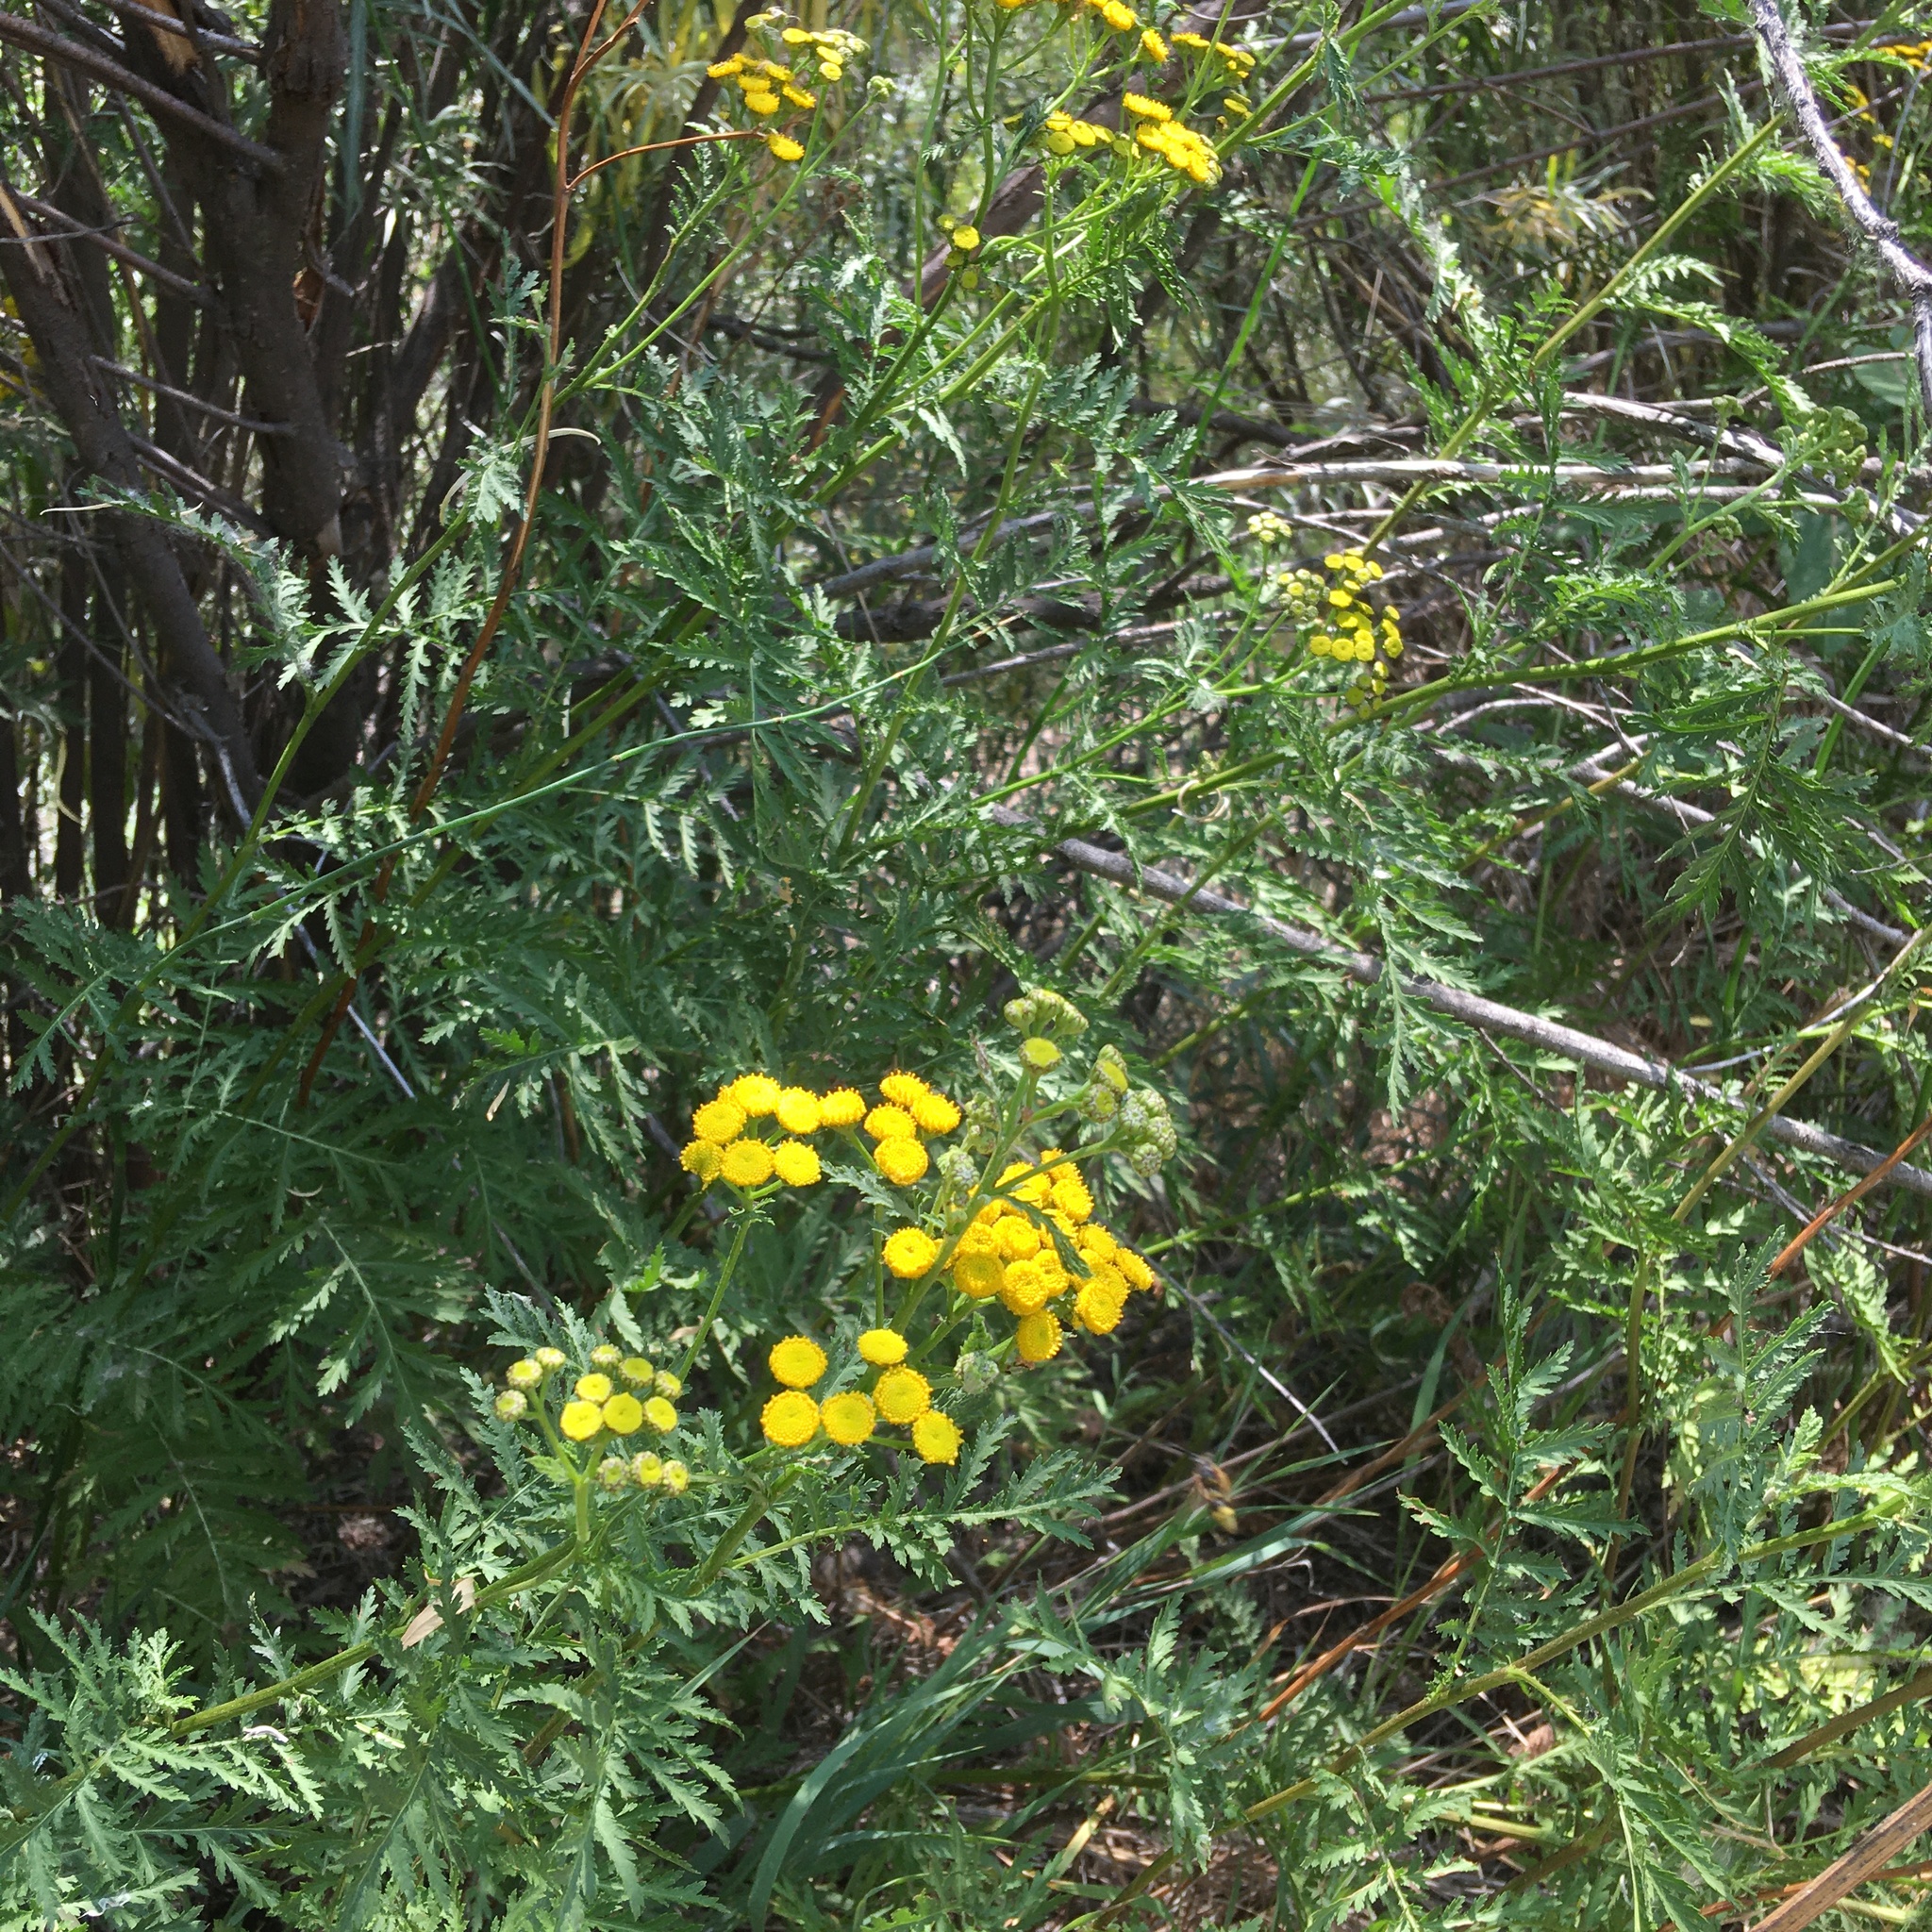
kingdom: Plantae
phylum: Tracheophyta
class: Magnoliopsida
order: Asterales
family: Asteraceae
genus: Tanacetum
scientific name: Tanacetum vulgare
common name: Common tansy
